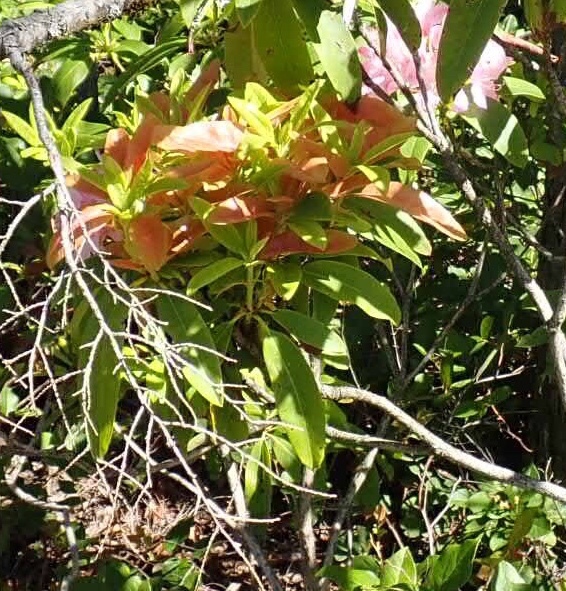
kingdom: Fungi
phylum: Basidiomycota
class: Exobasidiomycetes
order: Exobasidiales
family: Exobasidiaceae
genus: Exobasidium
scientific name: Exobasidium vaccinii-uliginosi
